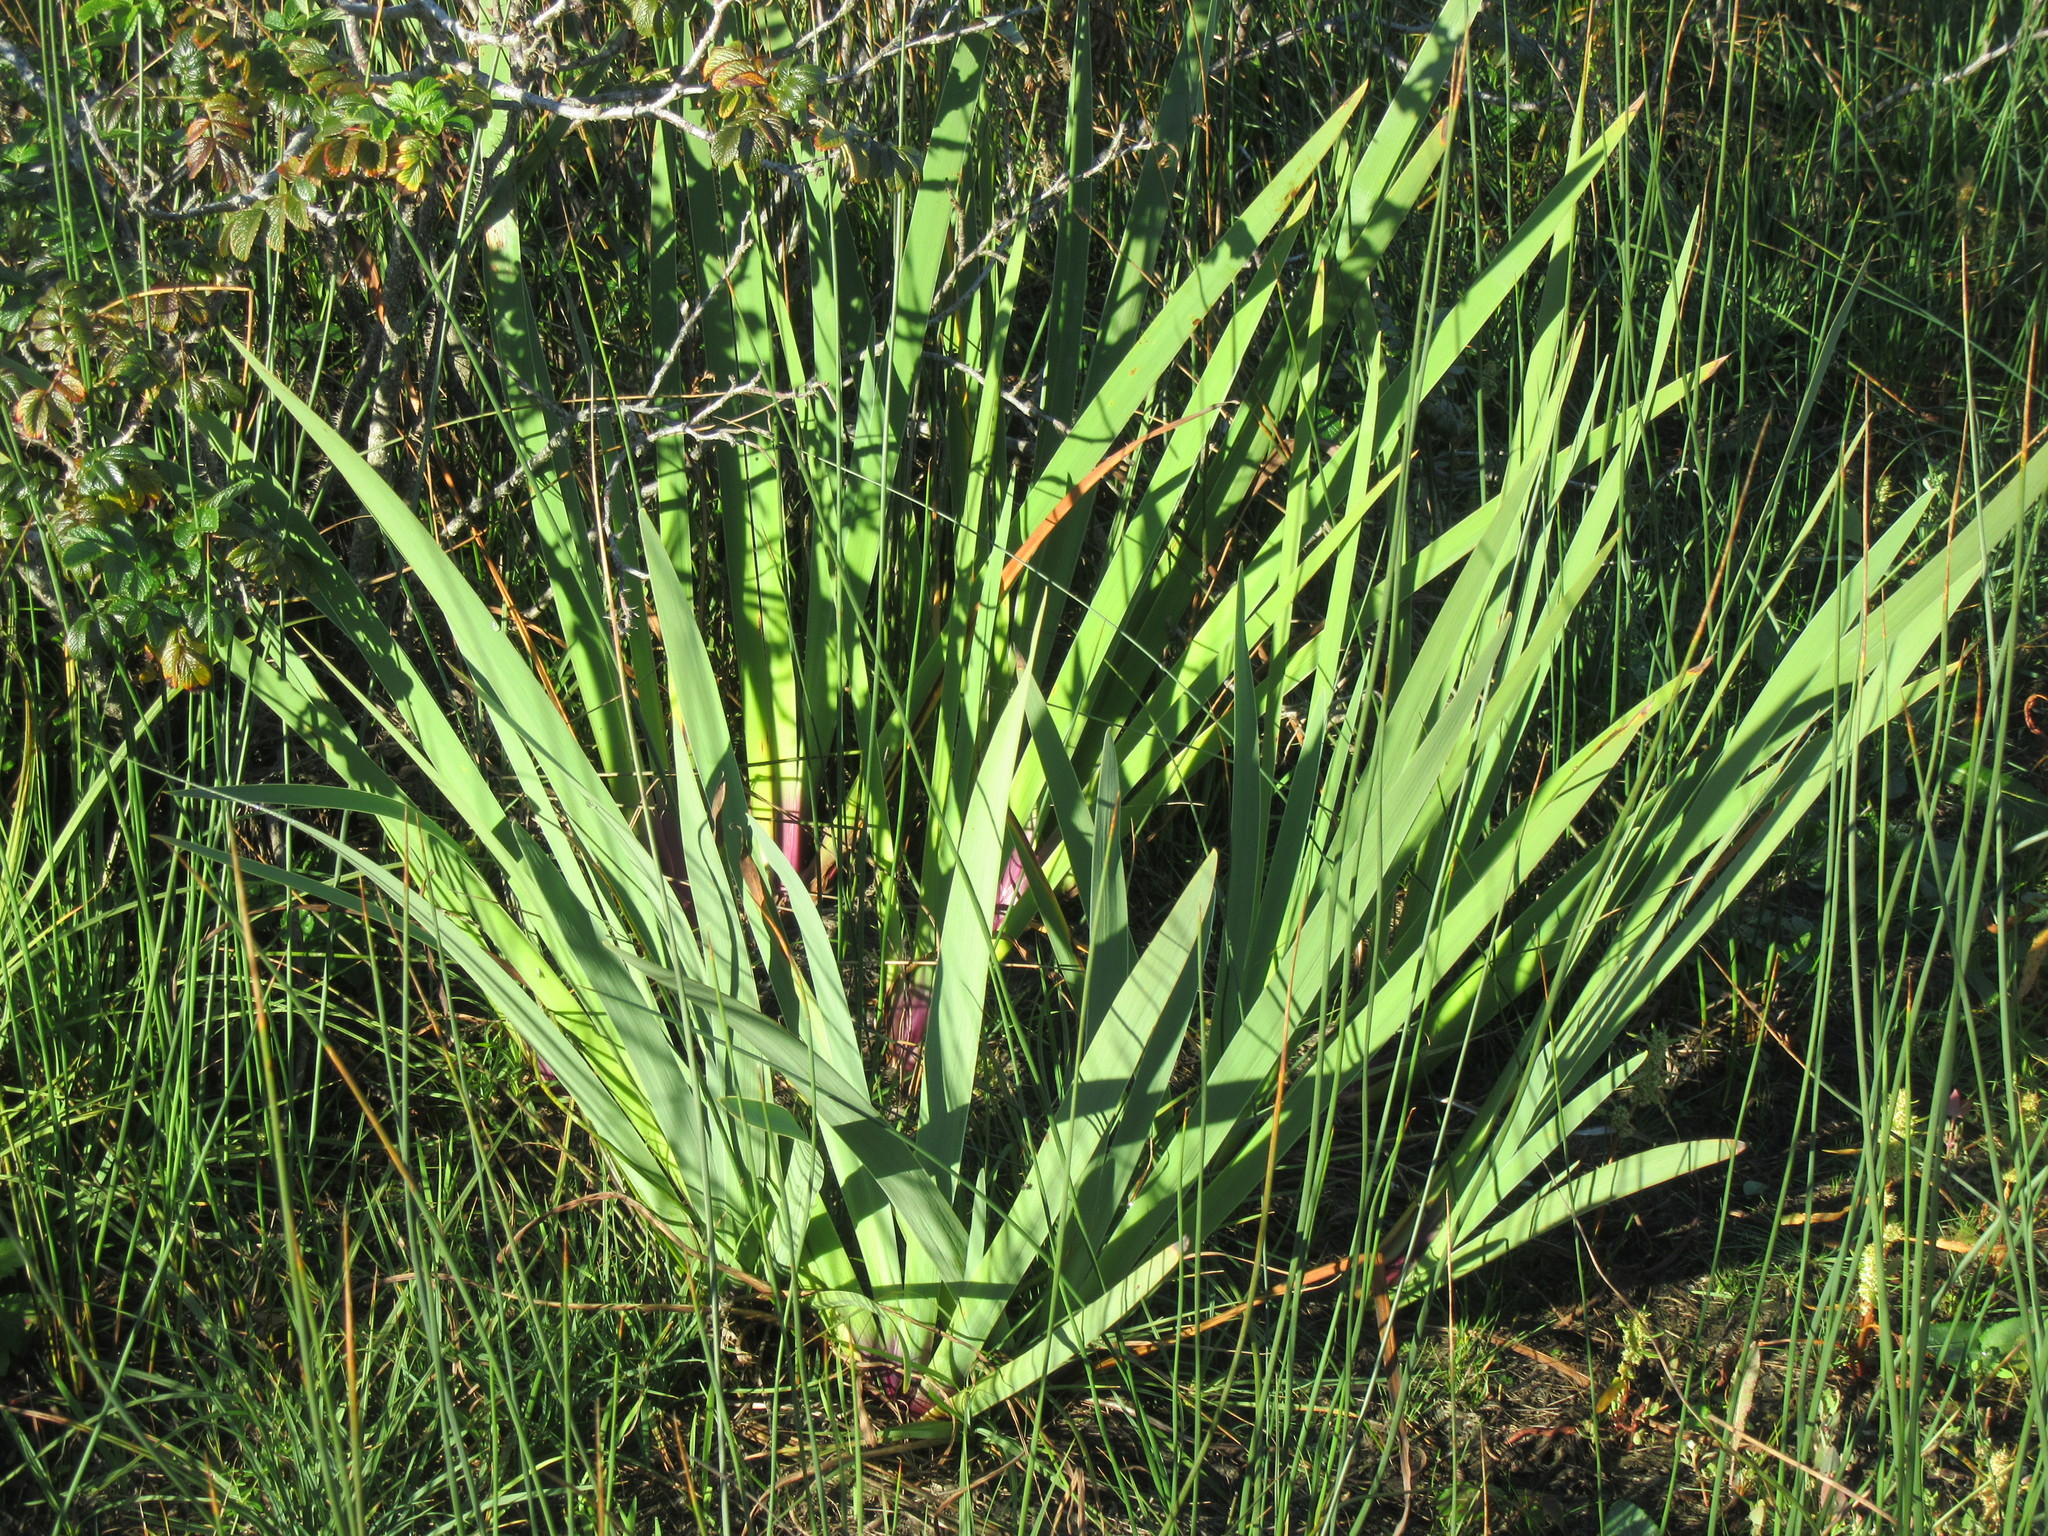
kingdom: Plantae
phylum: Tracheophyta
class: Liliopsida
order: Asparagales
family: Iridaceae
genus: Iris
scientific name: Iris versicolor
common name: Purple iris
